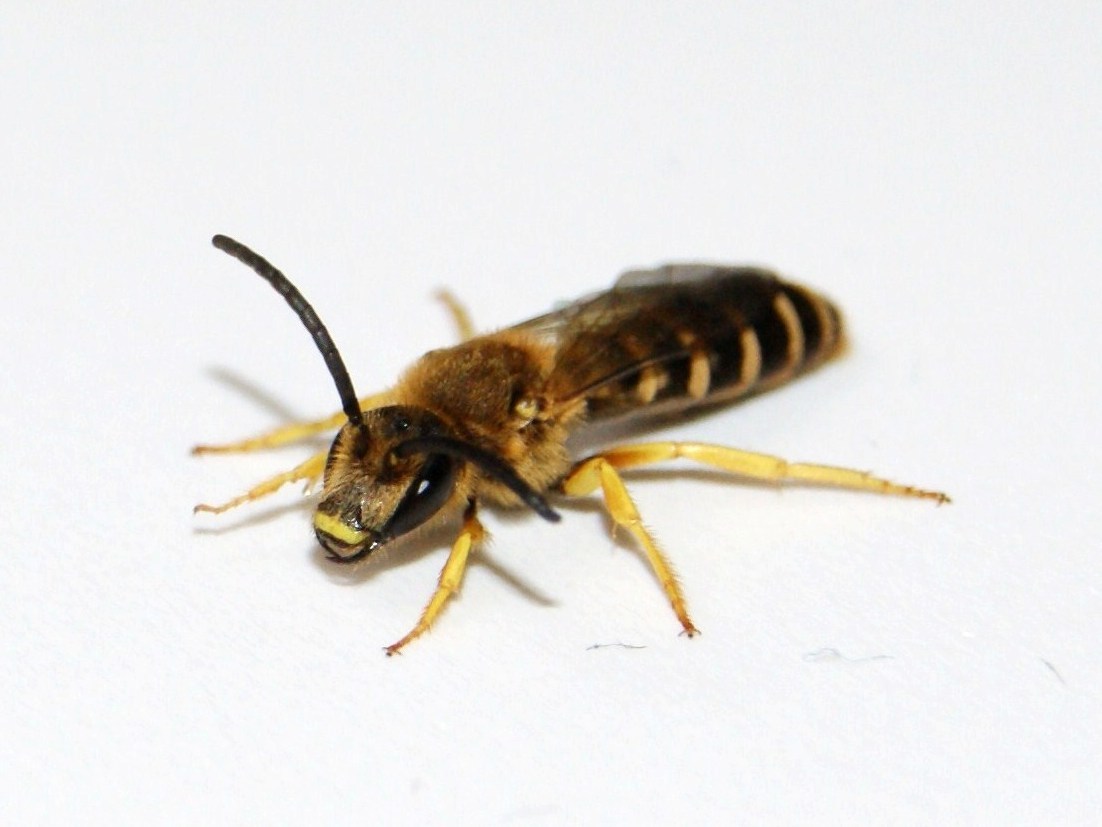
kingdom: Animalia
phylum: Arthropoda
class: Insecta
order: Hymenoptera
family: Halictidae
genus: Halictus
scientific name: Halictus scabiosae
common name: Great banded furrow bee
